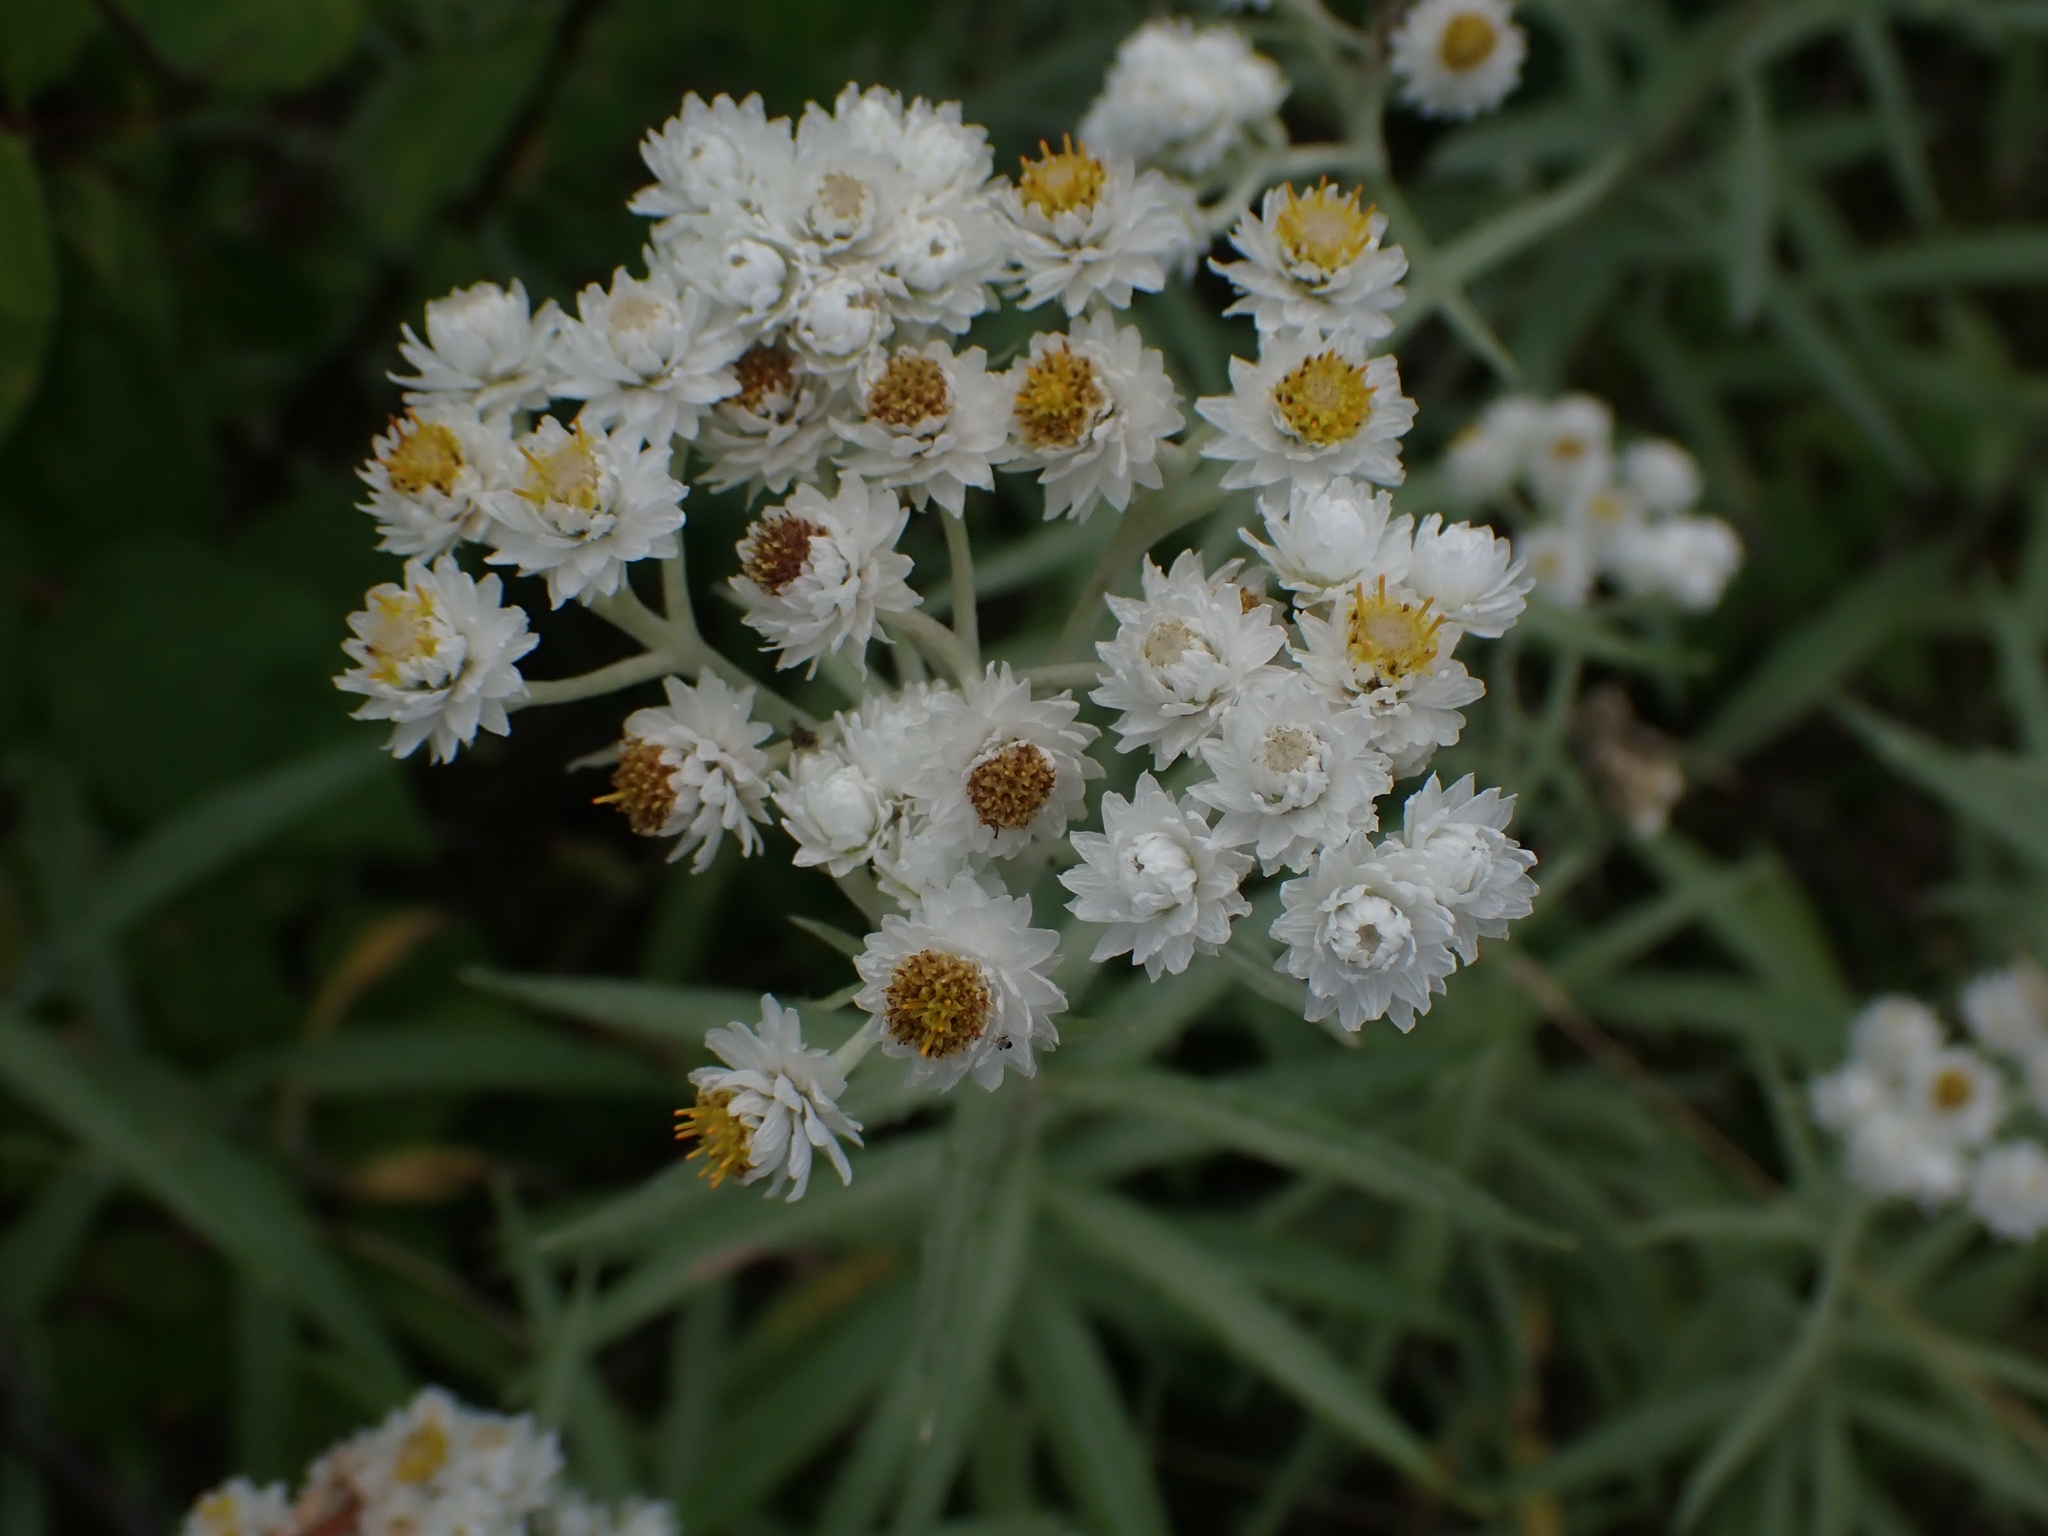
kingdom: Plantae
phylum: Tracheophyta
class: Magnoliopsida
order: Asterales
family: Asteraceae
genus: Anaphalis
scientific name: Anaphalis margaritacea
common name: Pearly everlasting
